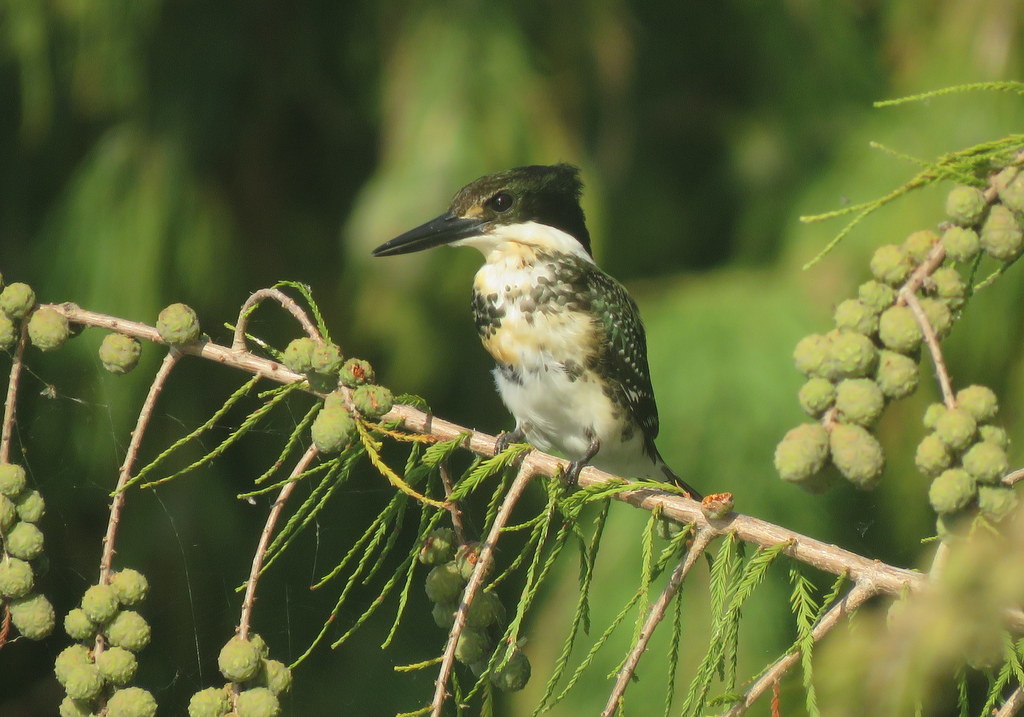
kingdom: Animalia
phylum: Chordata
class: Aves
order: Coraciiformes
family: Alcedinidae
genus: Chloroceryle
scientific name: Chloroceryle americana
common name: Green kingfisher
